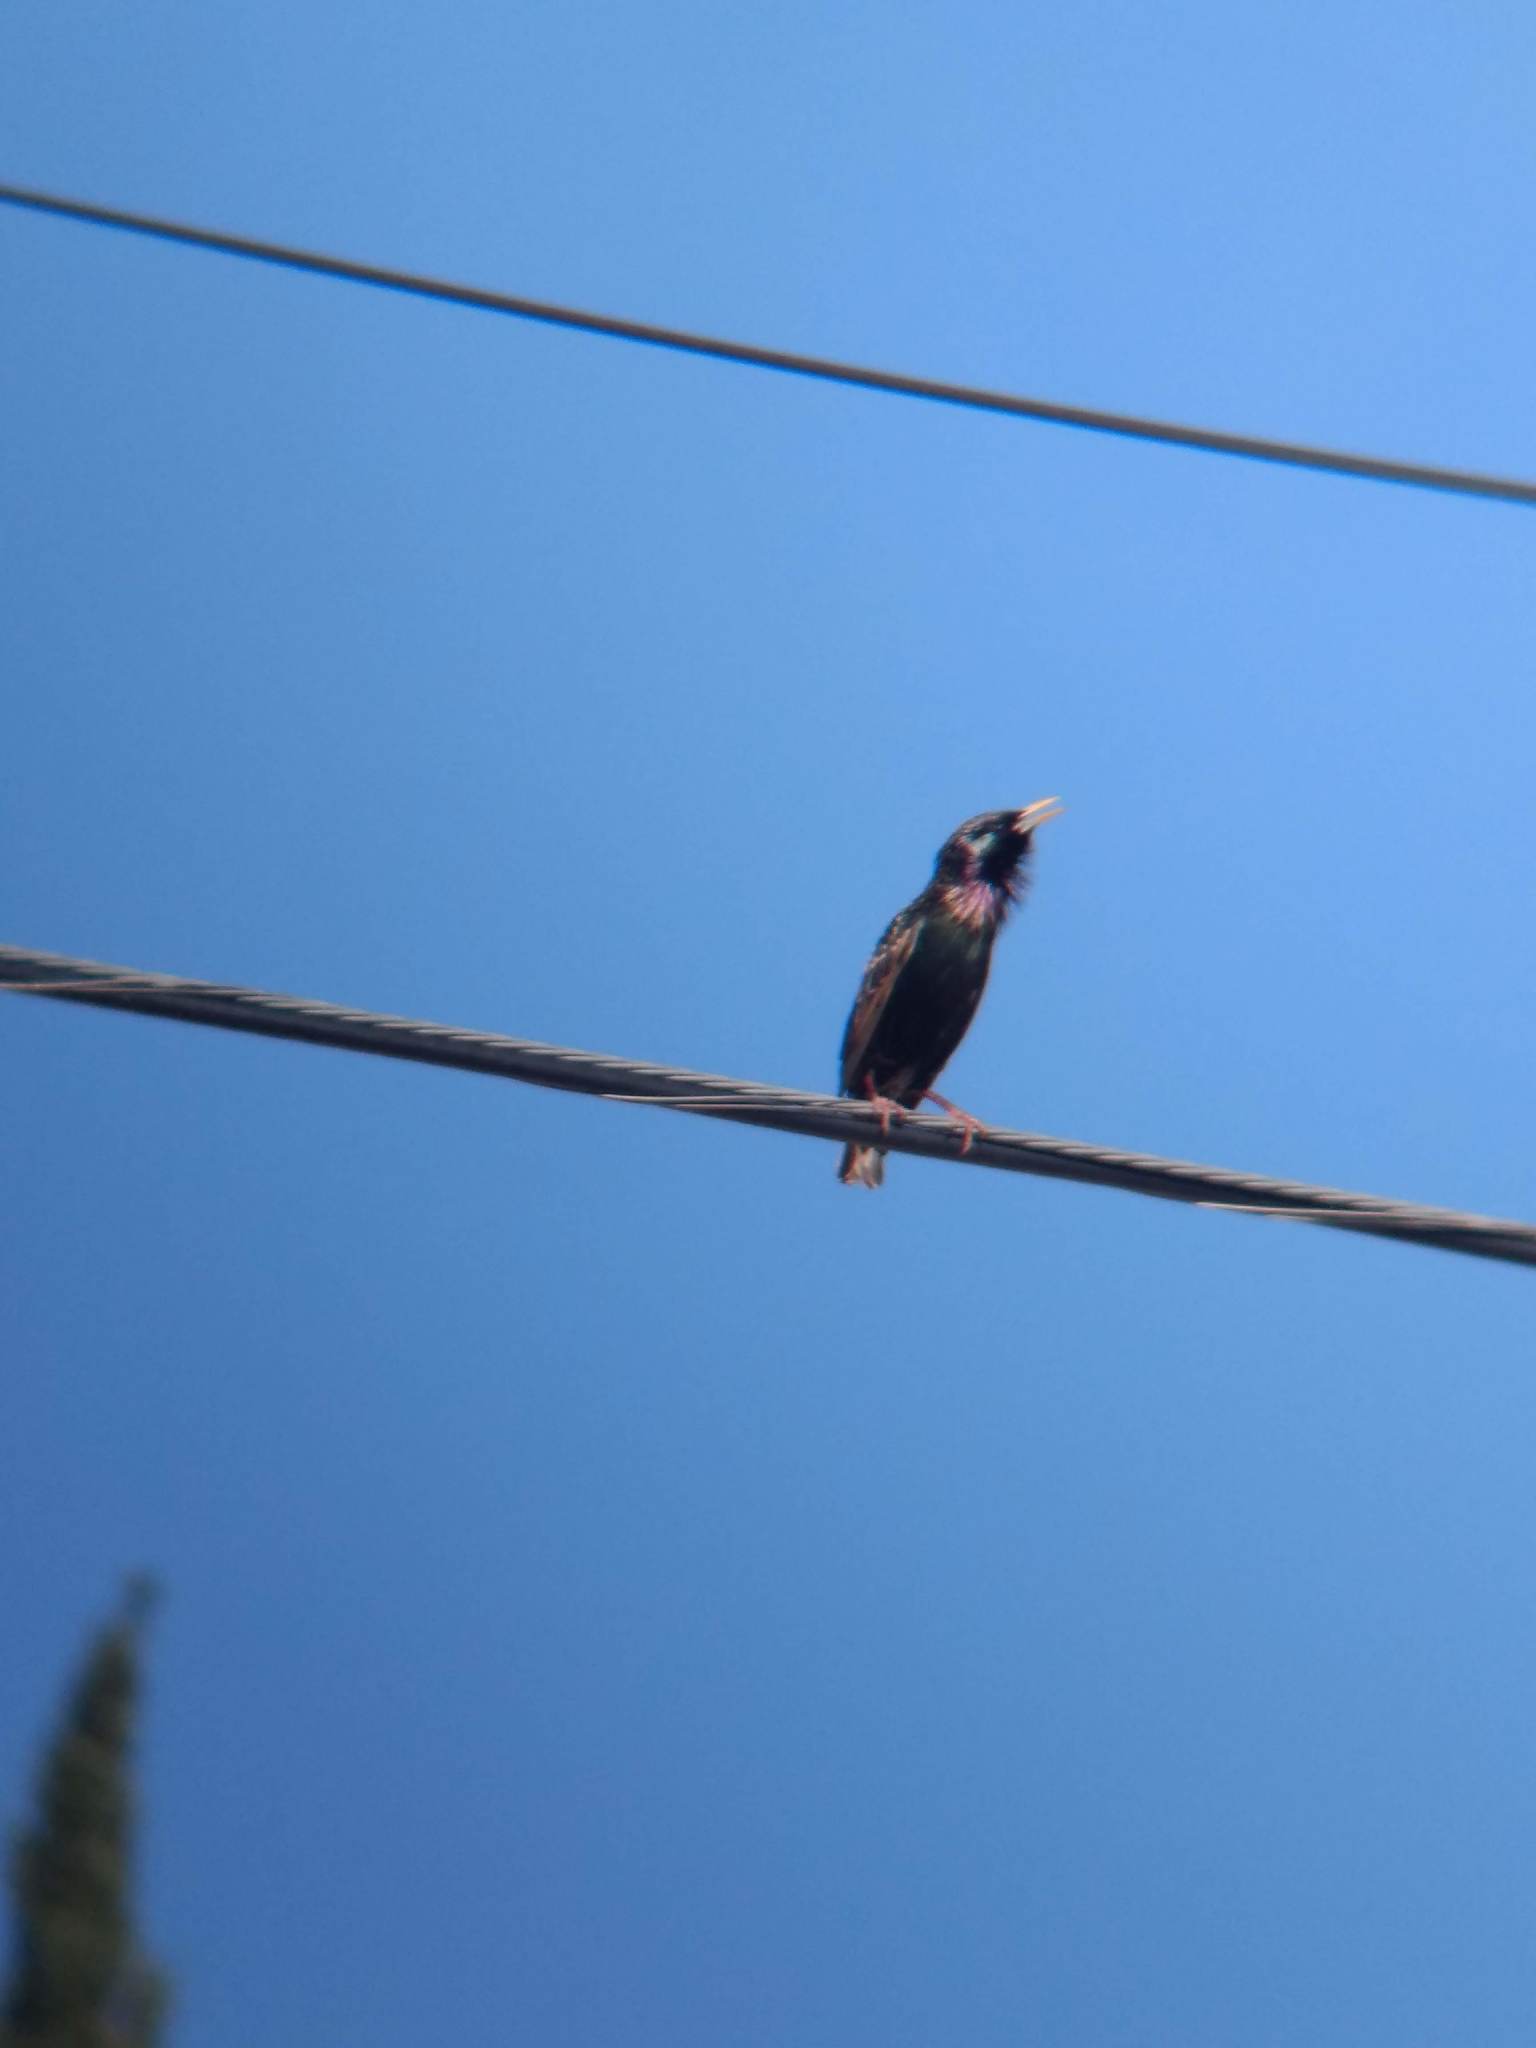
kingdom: Animalia
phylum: Chordata
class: Aves
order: Passeriformes
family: Sturnidae
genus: Sturnus
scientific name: Sturnus vulgaris
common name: Common starling
